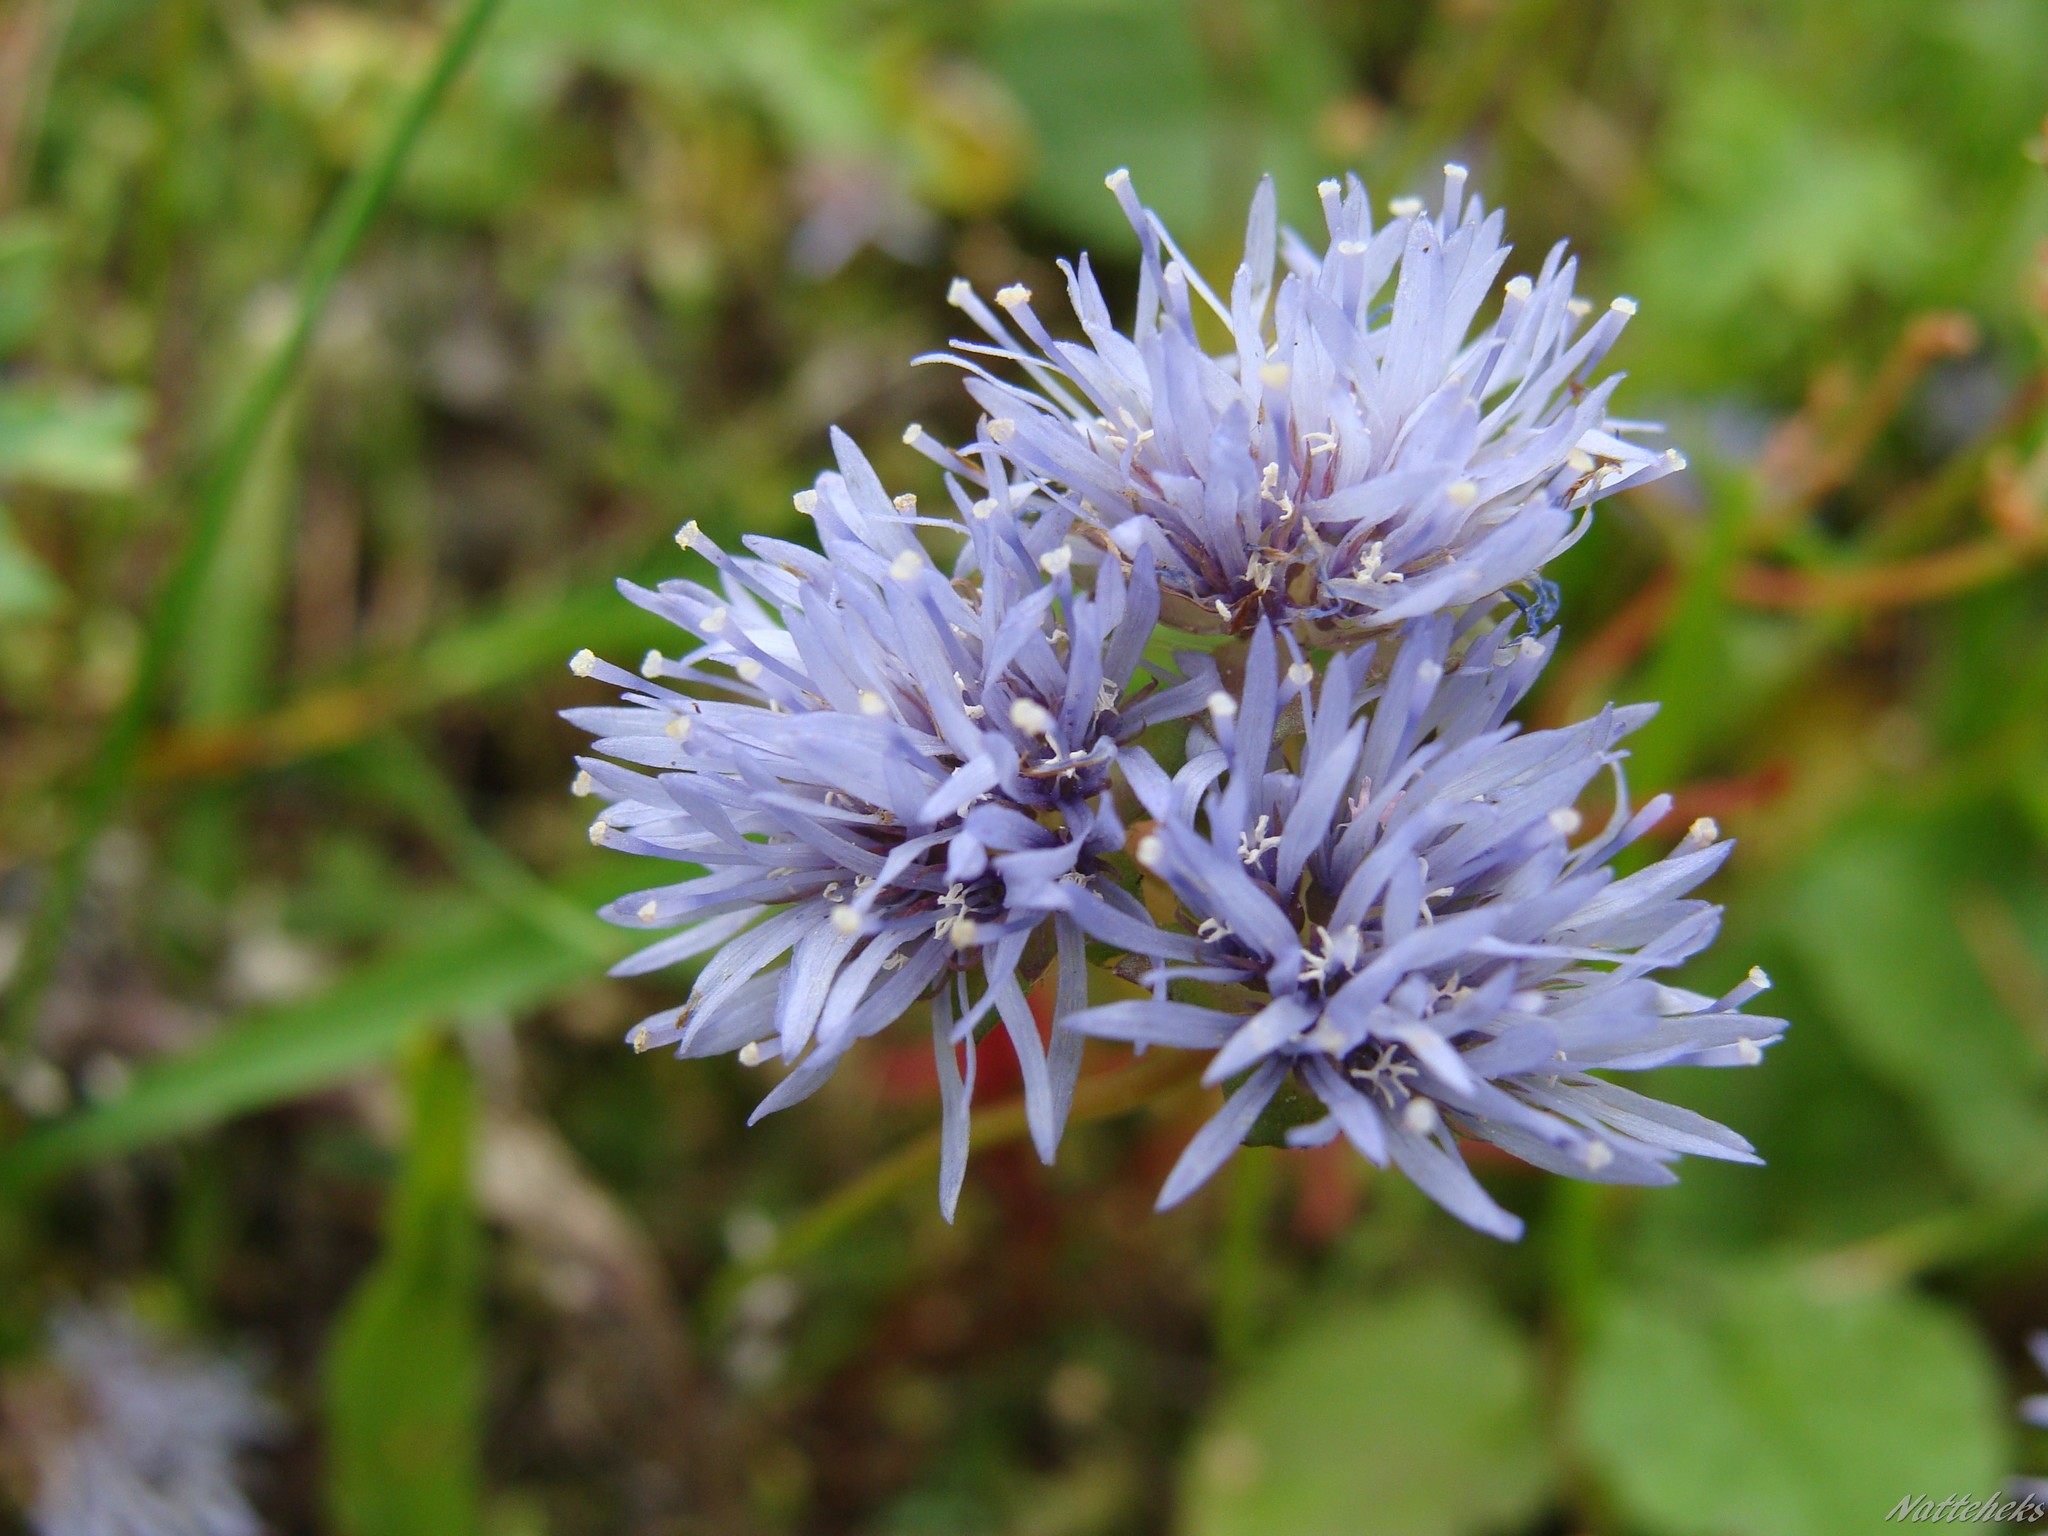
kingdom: Plantae
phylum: Tracheophyta
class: Magnoliopsida
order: Asterales
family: Campanulaceae
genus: Jasione
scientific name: Jasione montana
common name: Sheep's-bit
